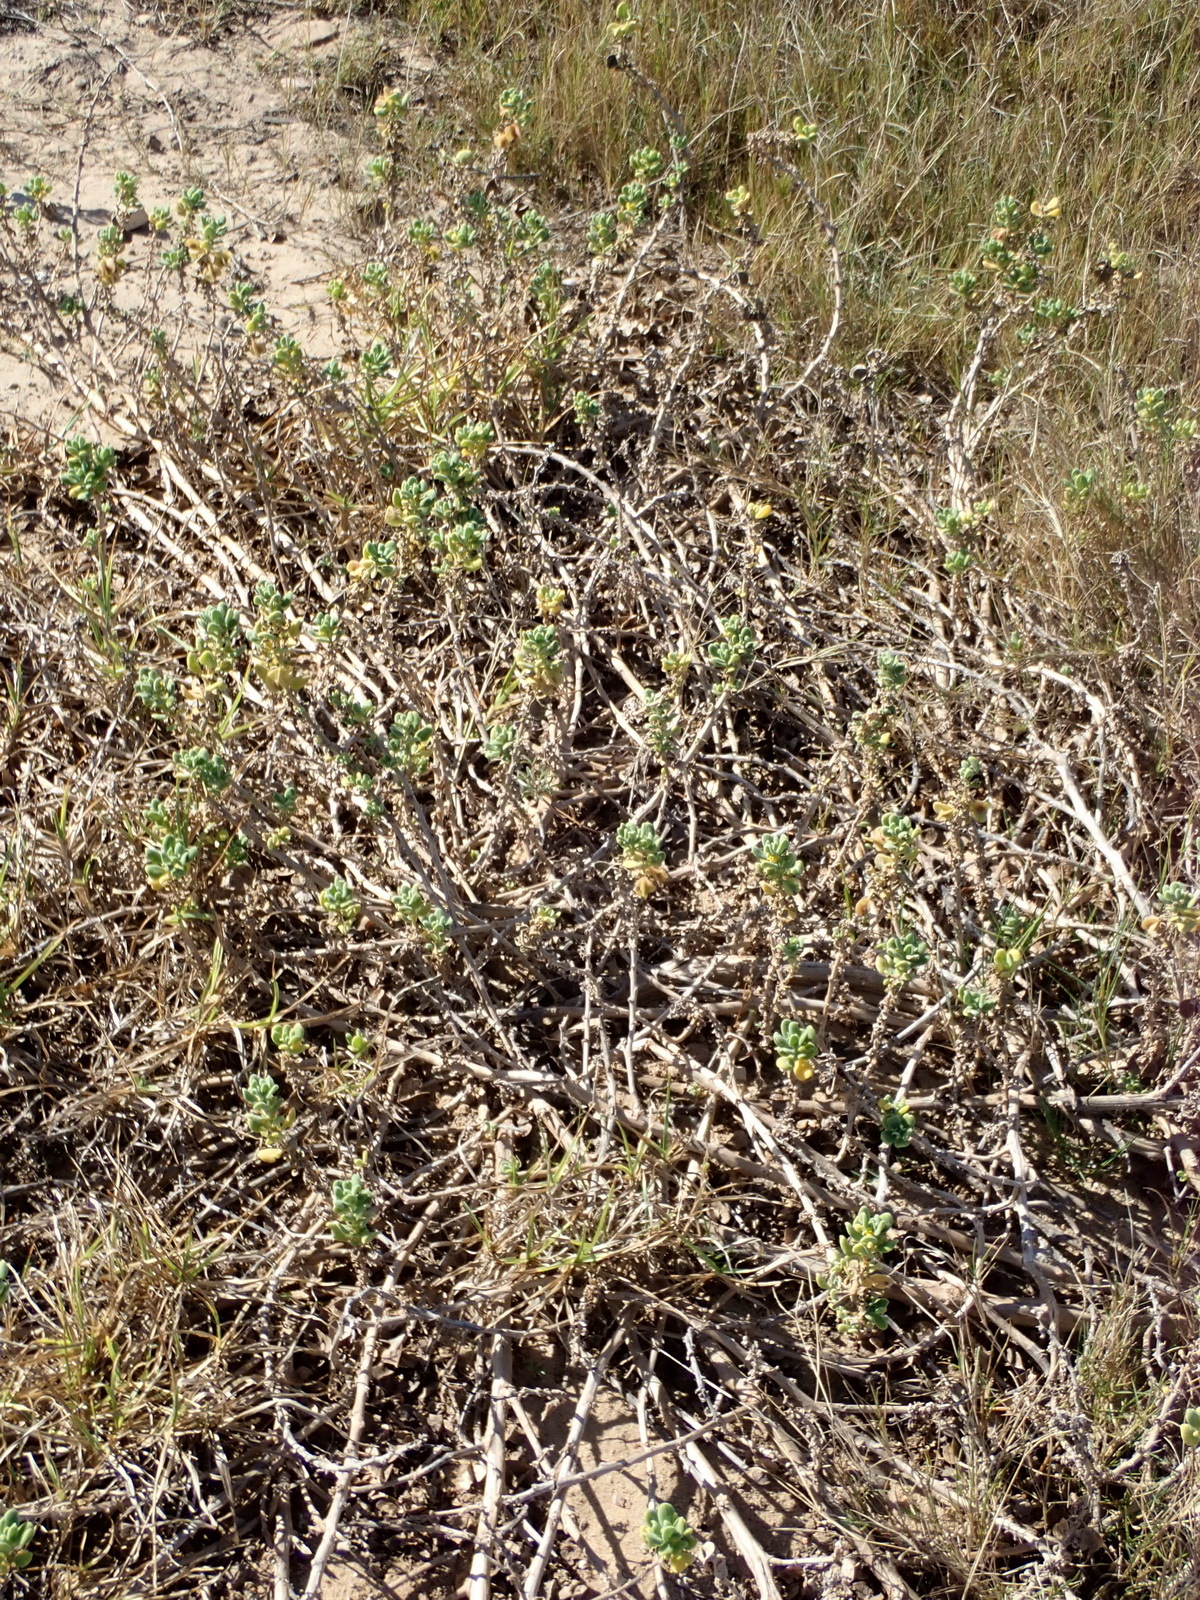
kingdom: Plantae
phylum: Tracheophyta
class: Magnoliopsida
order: Caryophyllales
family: Aizoaceae
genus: Tetragonia
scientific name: Tetragonia decumbens
